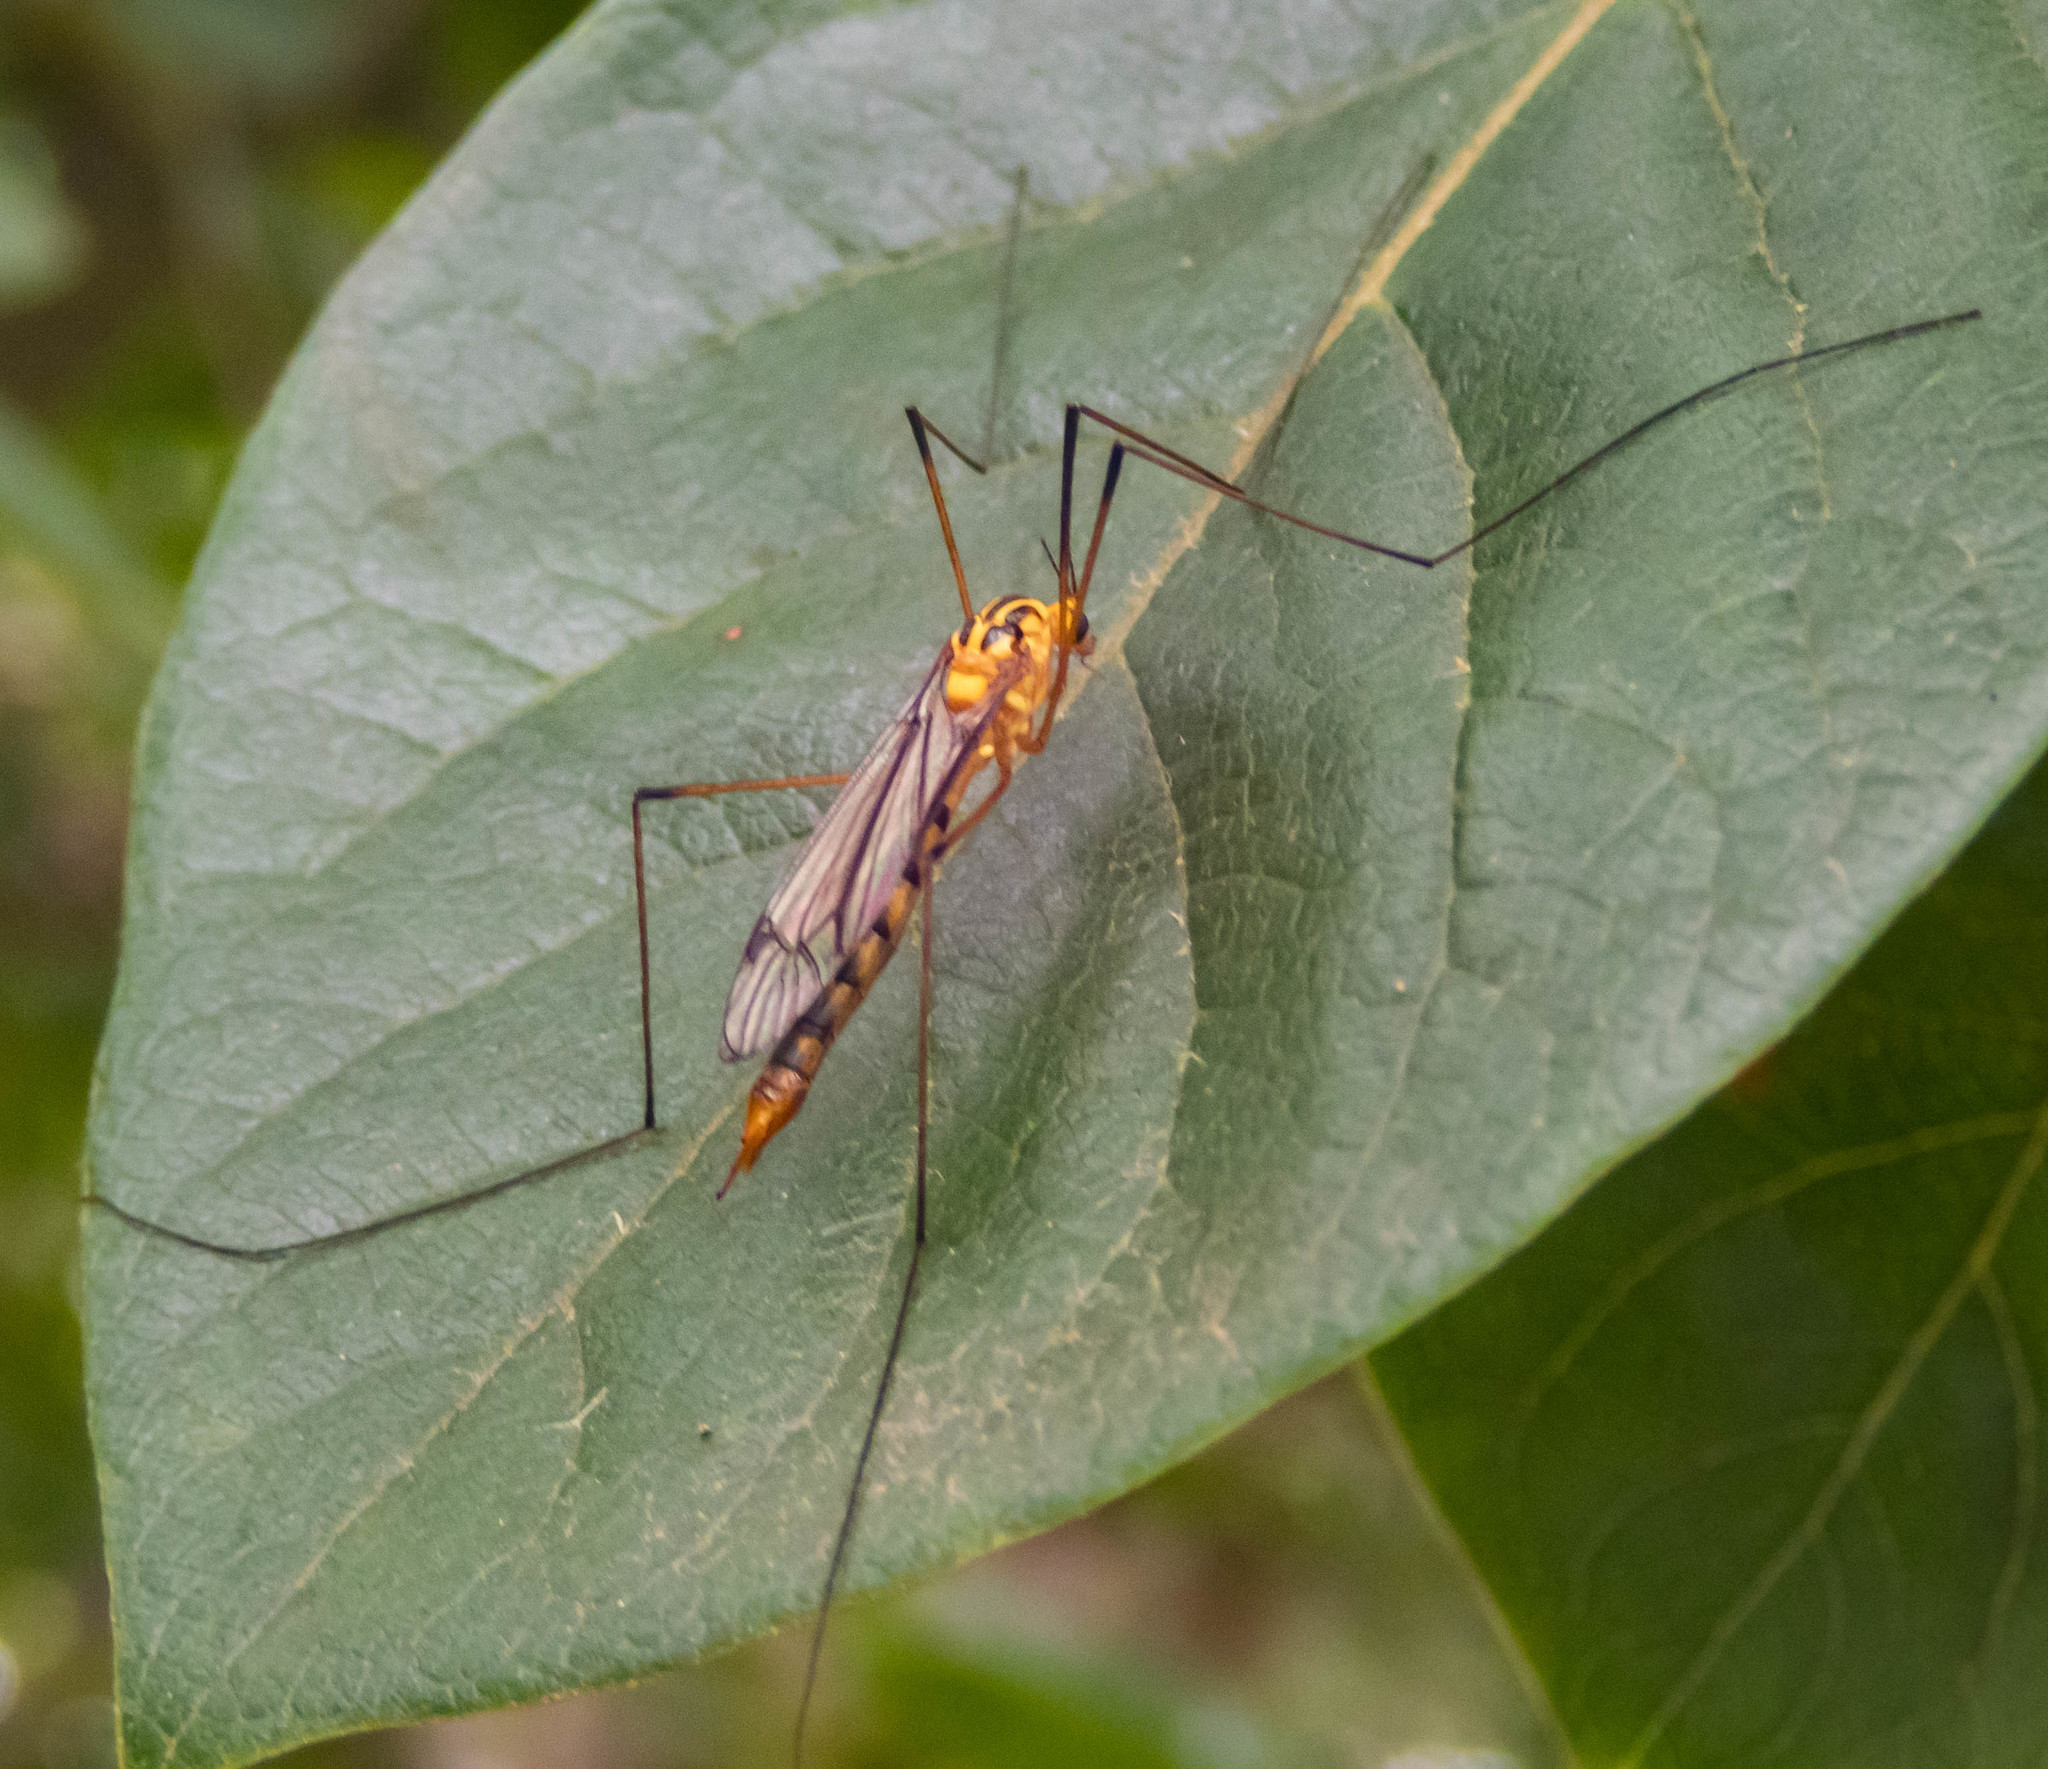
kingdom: Animalia
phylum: Arthropoda
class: Insecta
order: Diptera
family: Tipulidae
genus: Nephrotoma
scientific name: Nephrotoma australasiae
